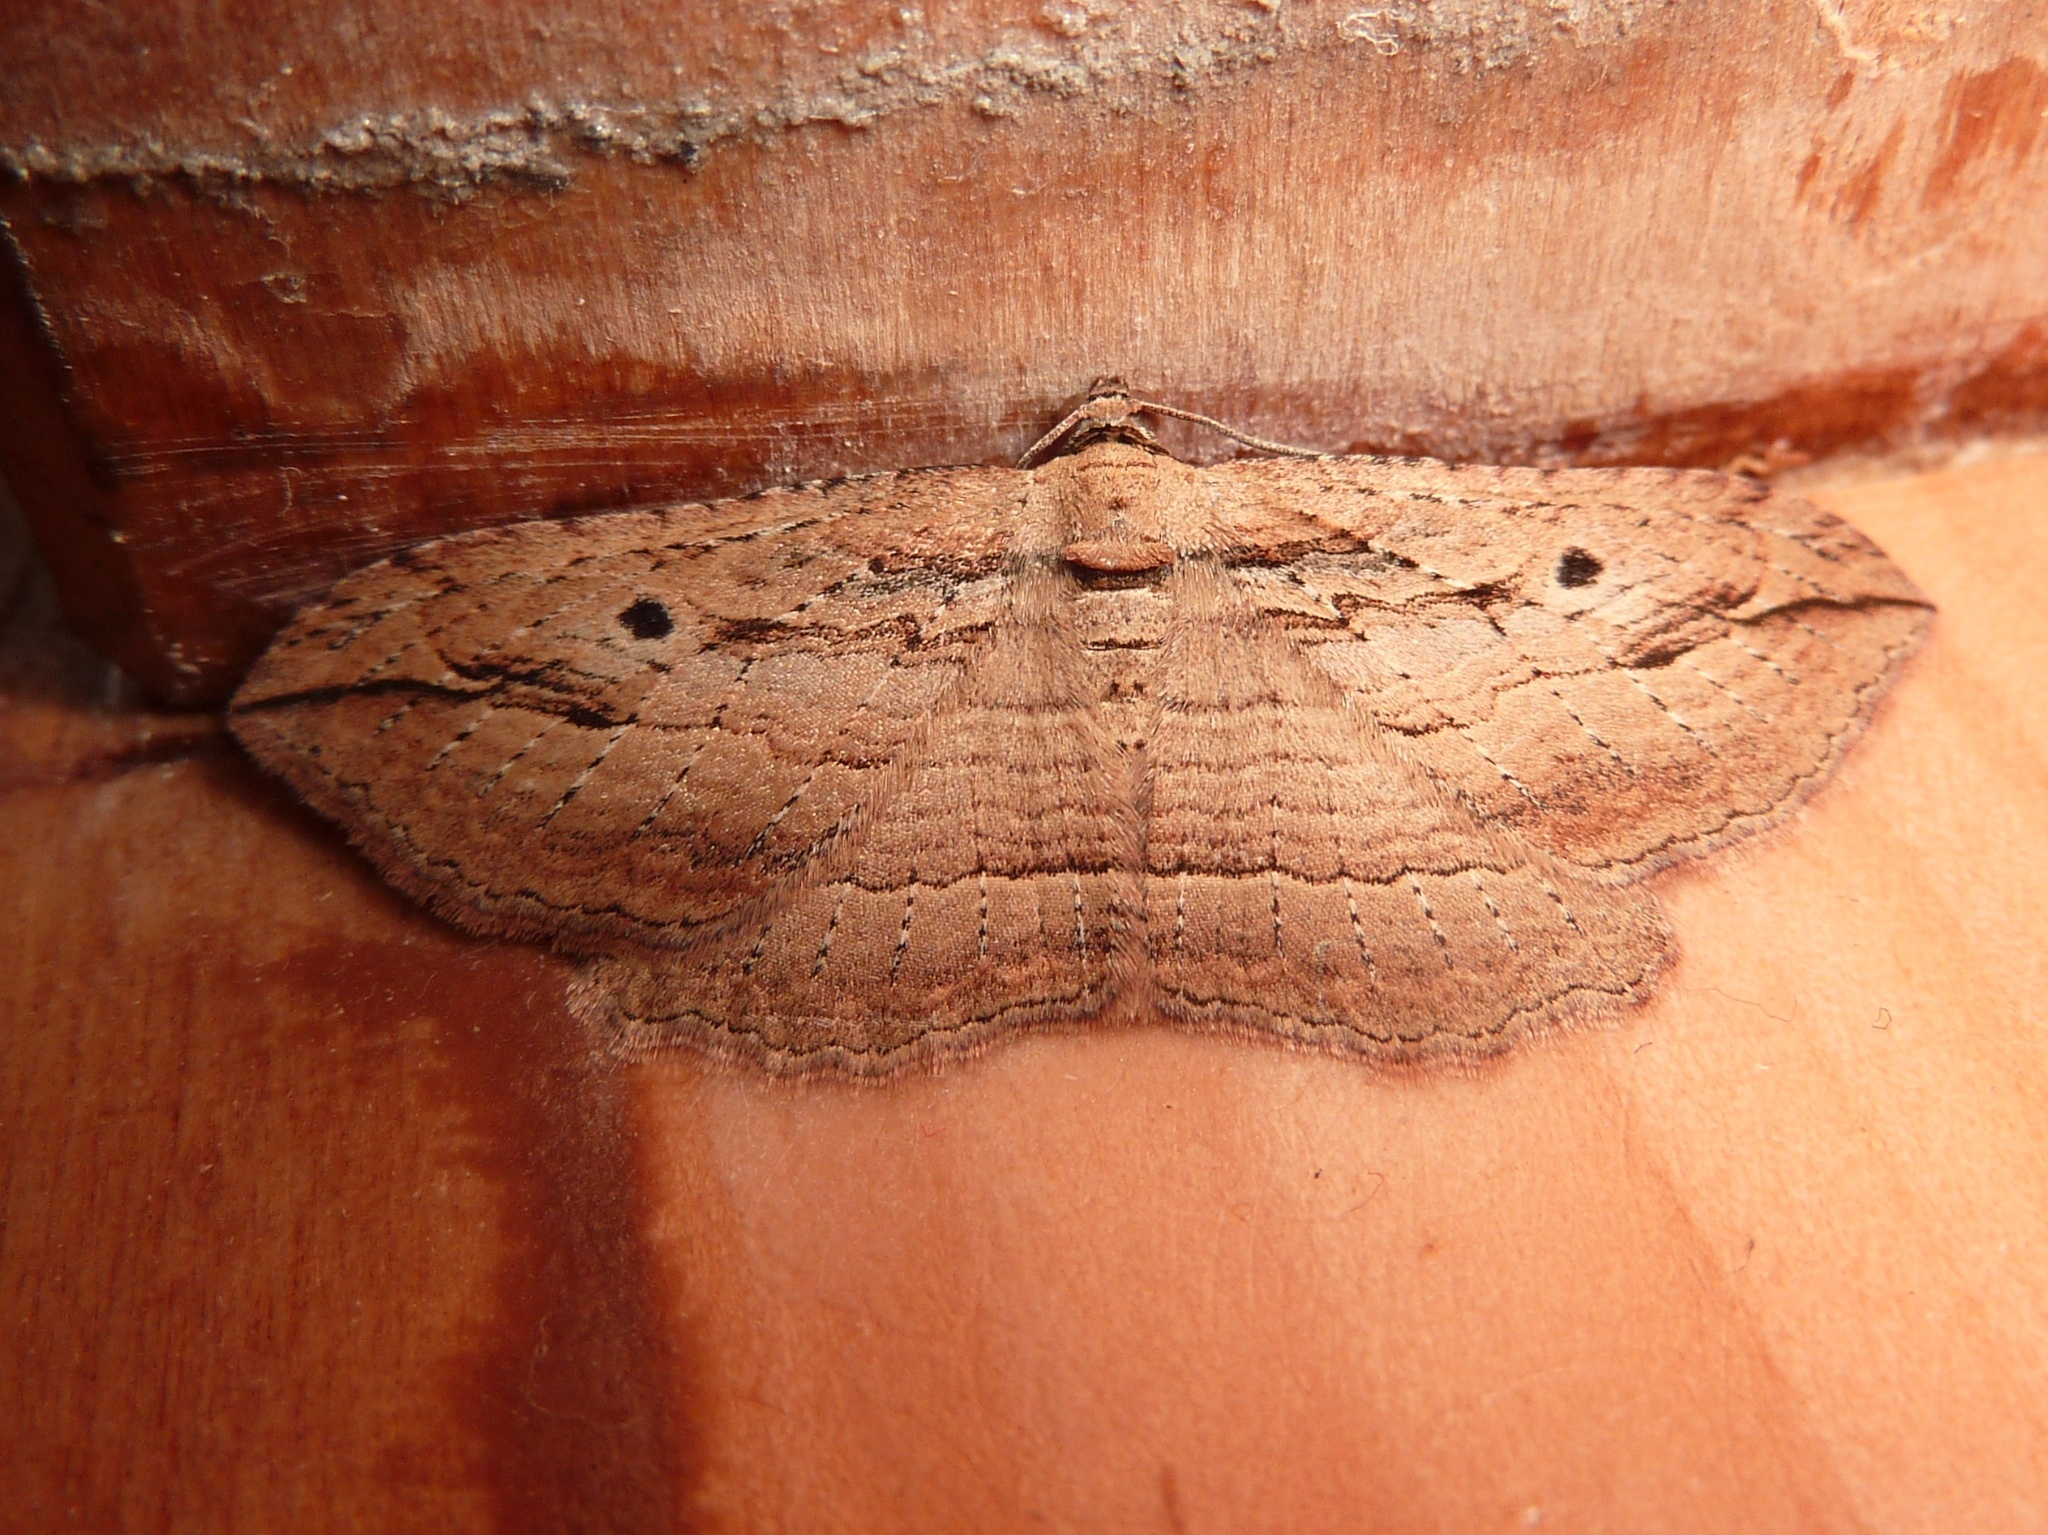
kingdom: Animalia
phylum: Arthropoda
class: Insecta
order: Lepidoptera
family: Geometridae
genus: Austrocidaria
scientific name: Austrocidaria gobiata
